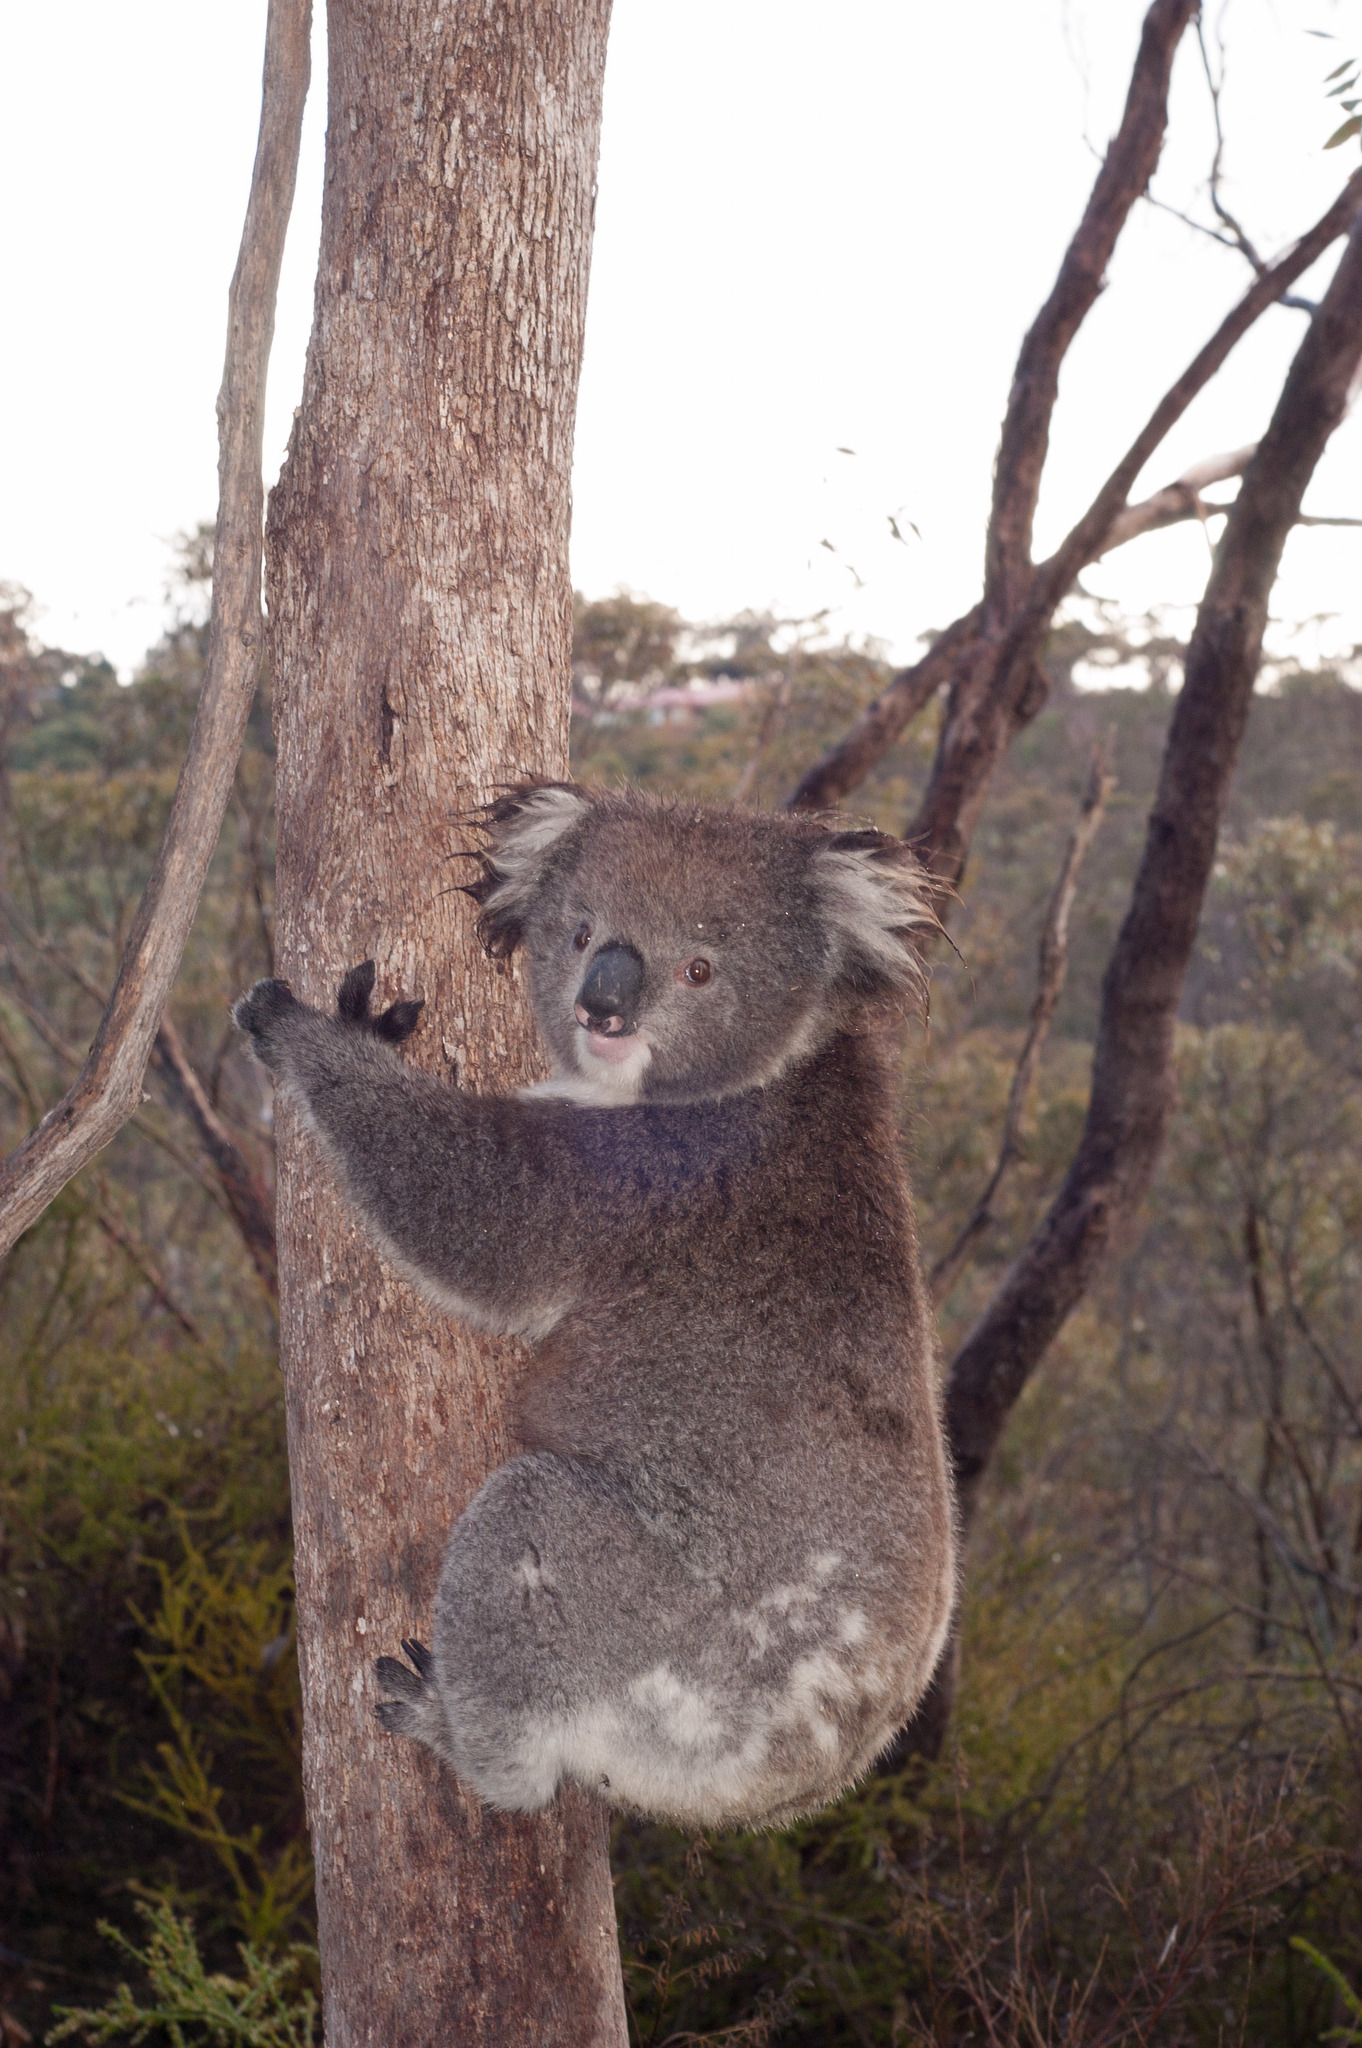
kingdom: Animalia
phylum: Chordata
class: Mammalia
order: Diprotodontia
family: Phascolarctidae
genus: Phascolarctos
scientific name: Phascolarctos cinereus
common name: Koala
